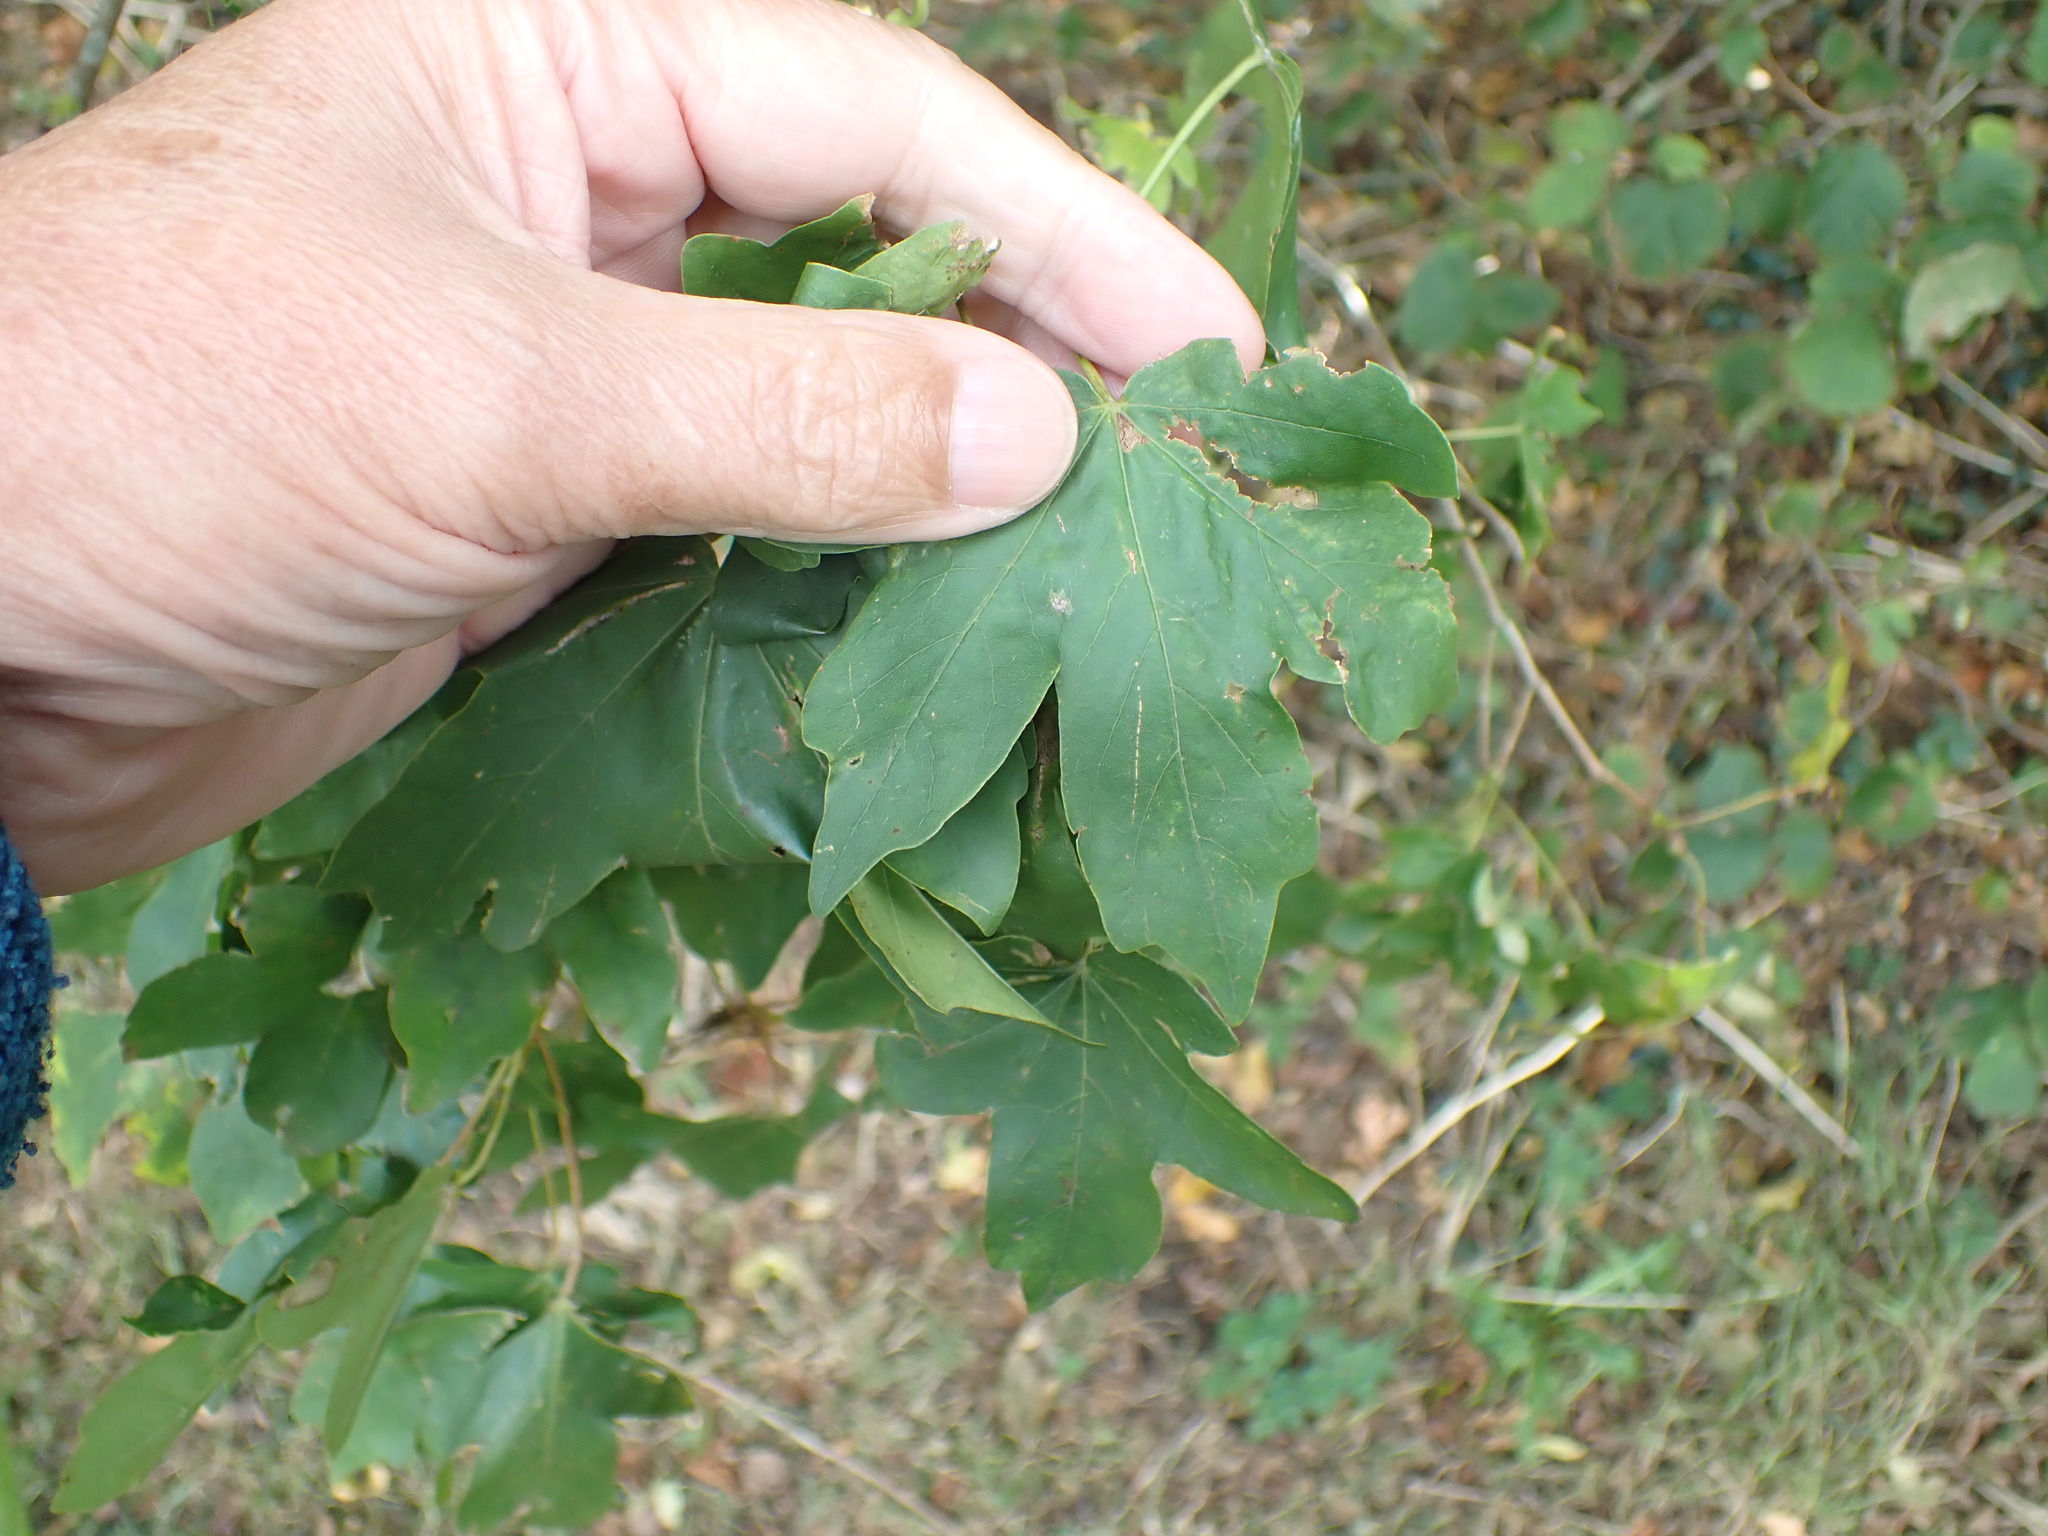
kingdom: Plantae
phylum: Tracheophyta
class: Magnoliopsida
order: Sapindales
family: Sapindaceae
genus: Acer
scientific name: Acer campestre
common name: Field maple
